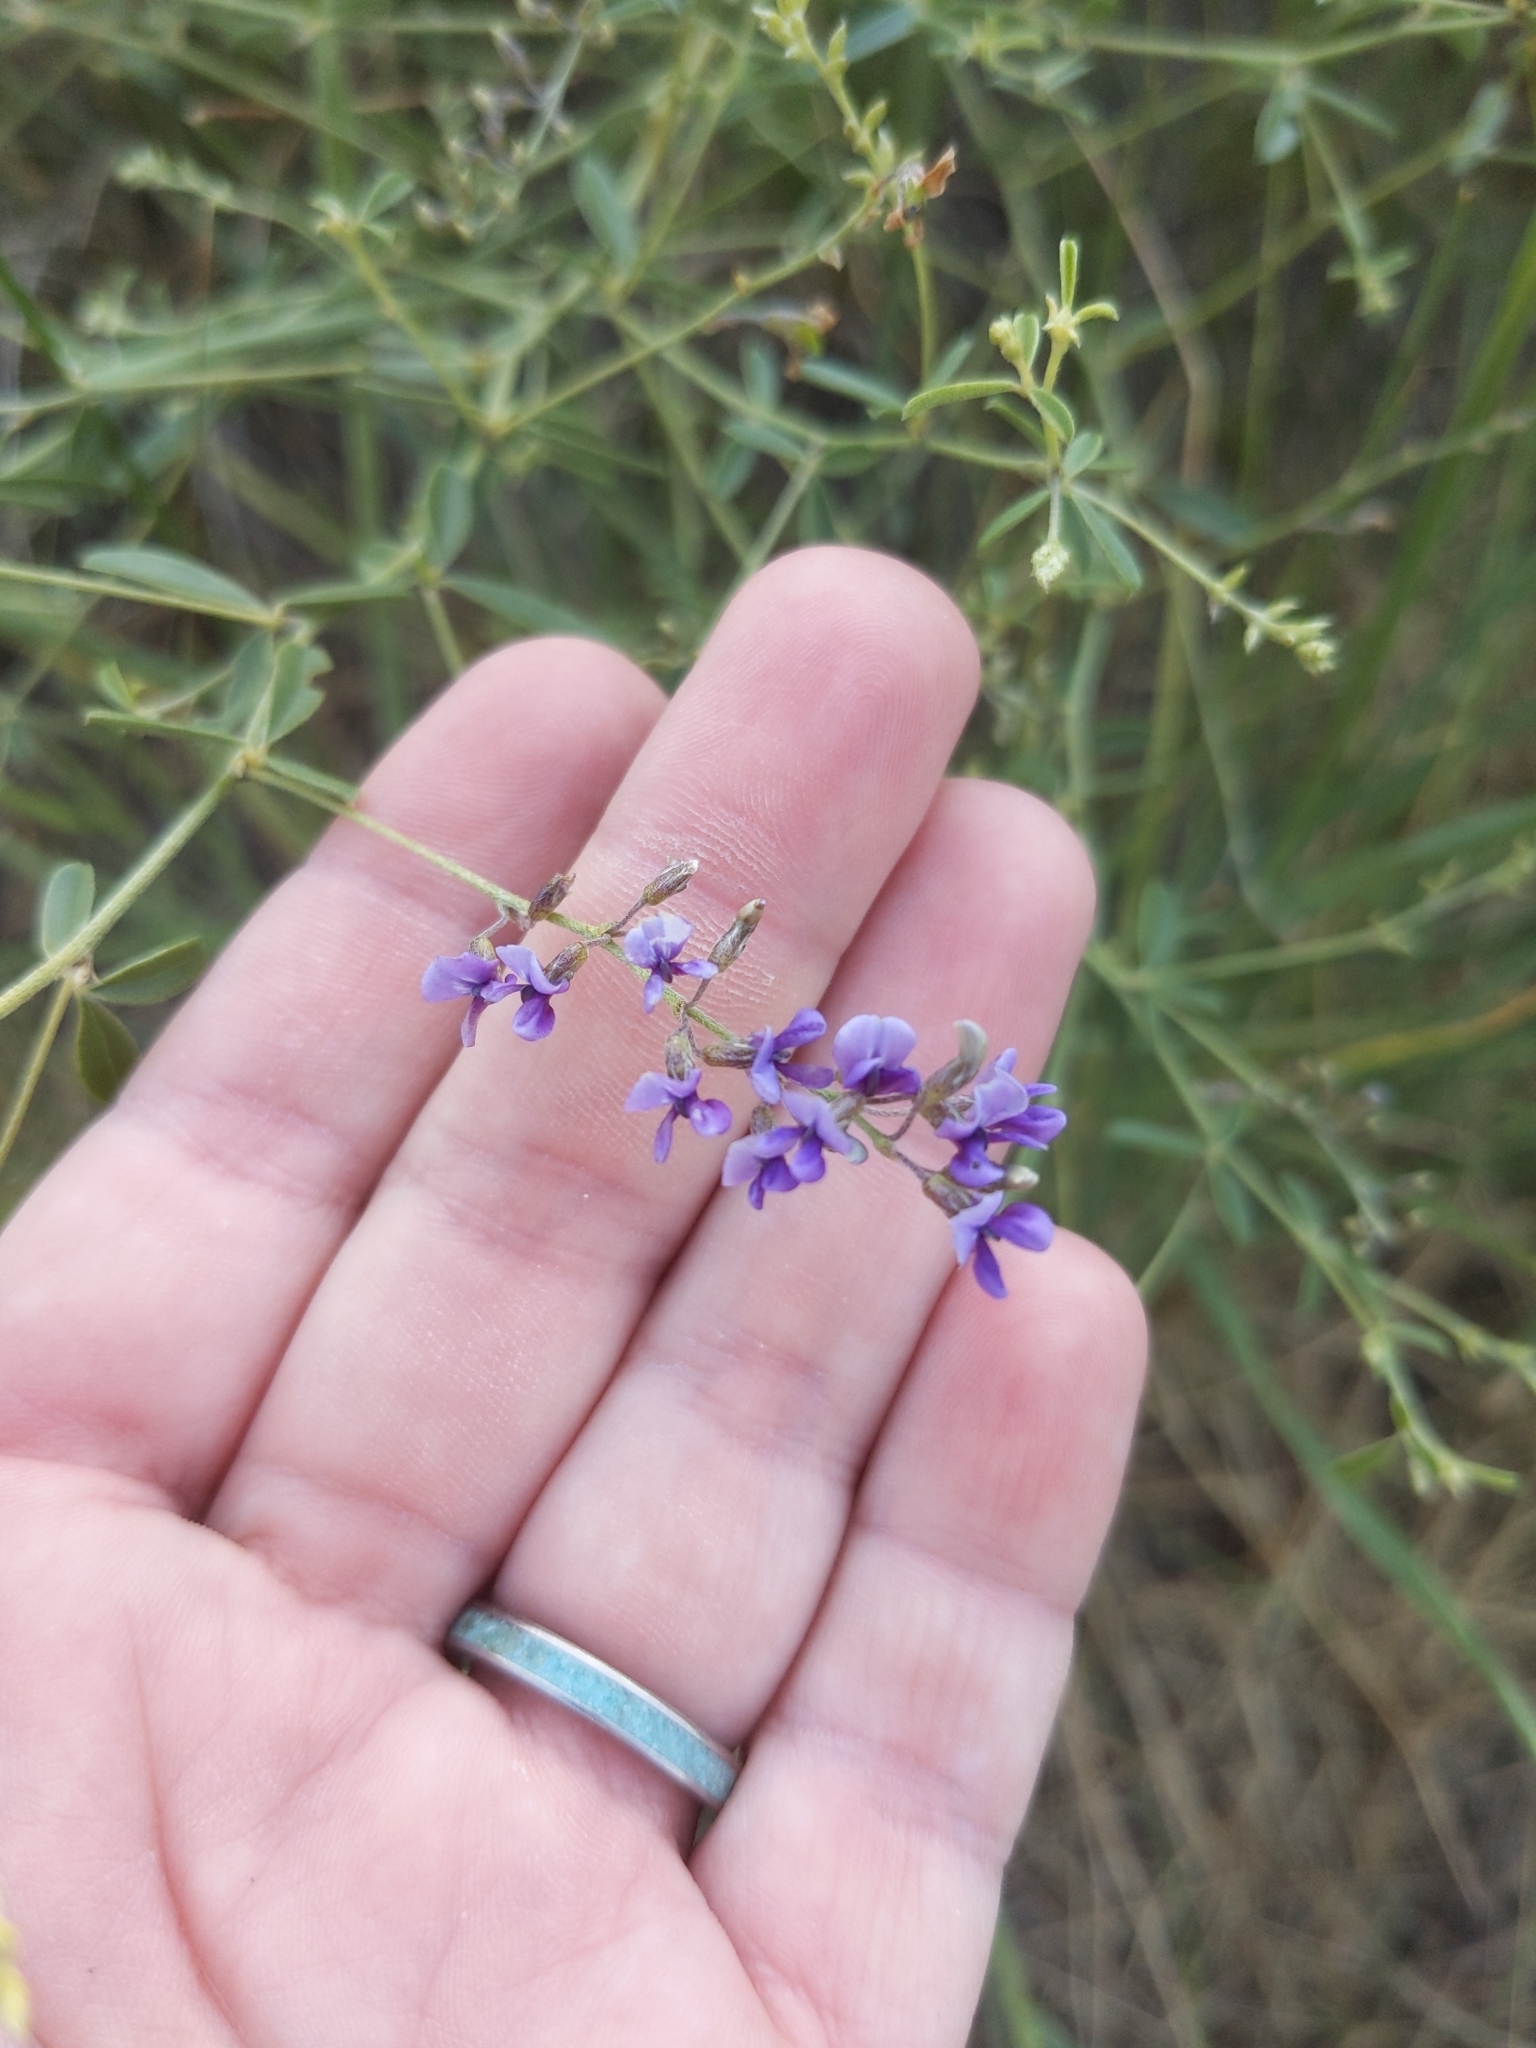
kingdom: Plantae
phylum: Tracheophyta
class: Magnoliopsida
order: Fabales
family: Fabaceae
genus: Pediomelum
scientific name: Pediomelum tenuiflorum
